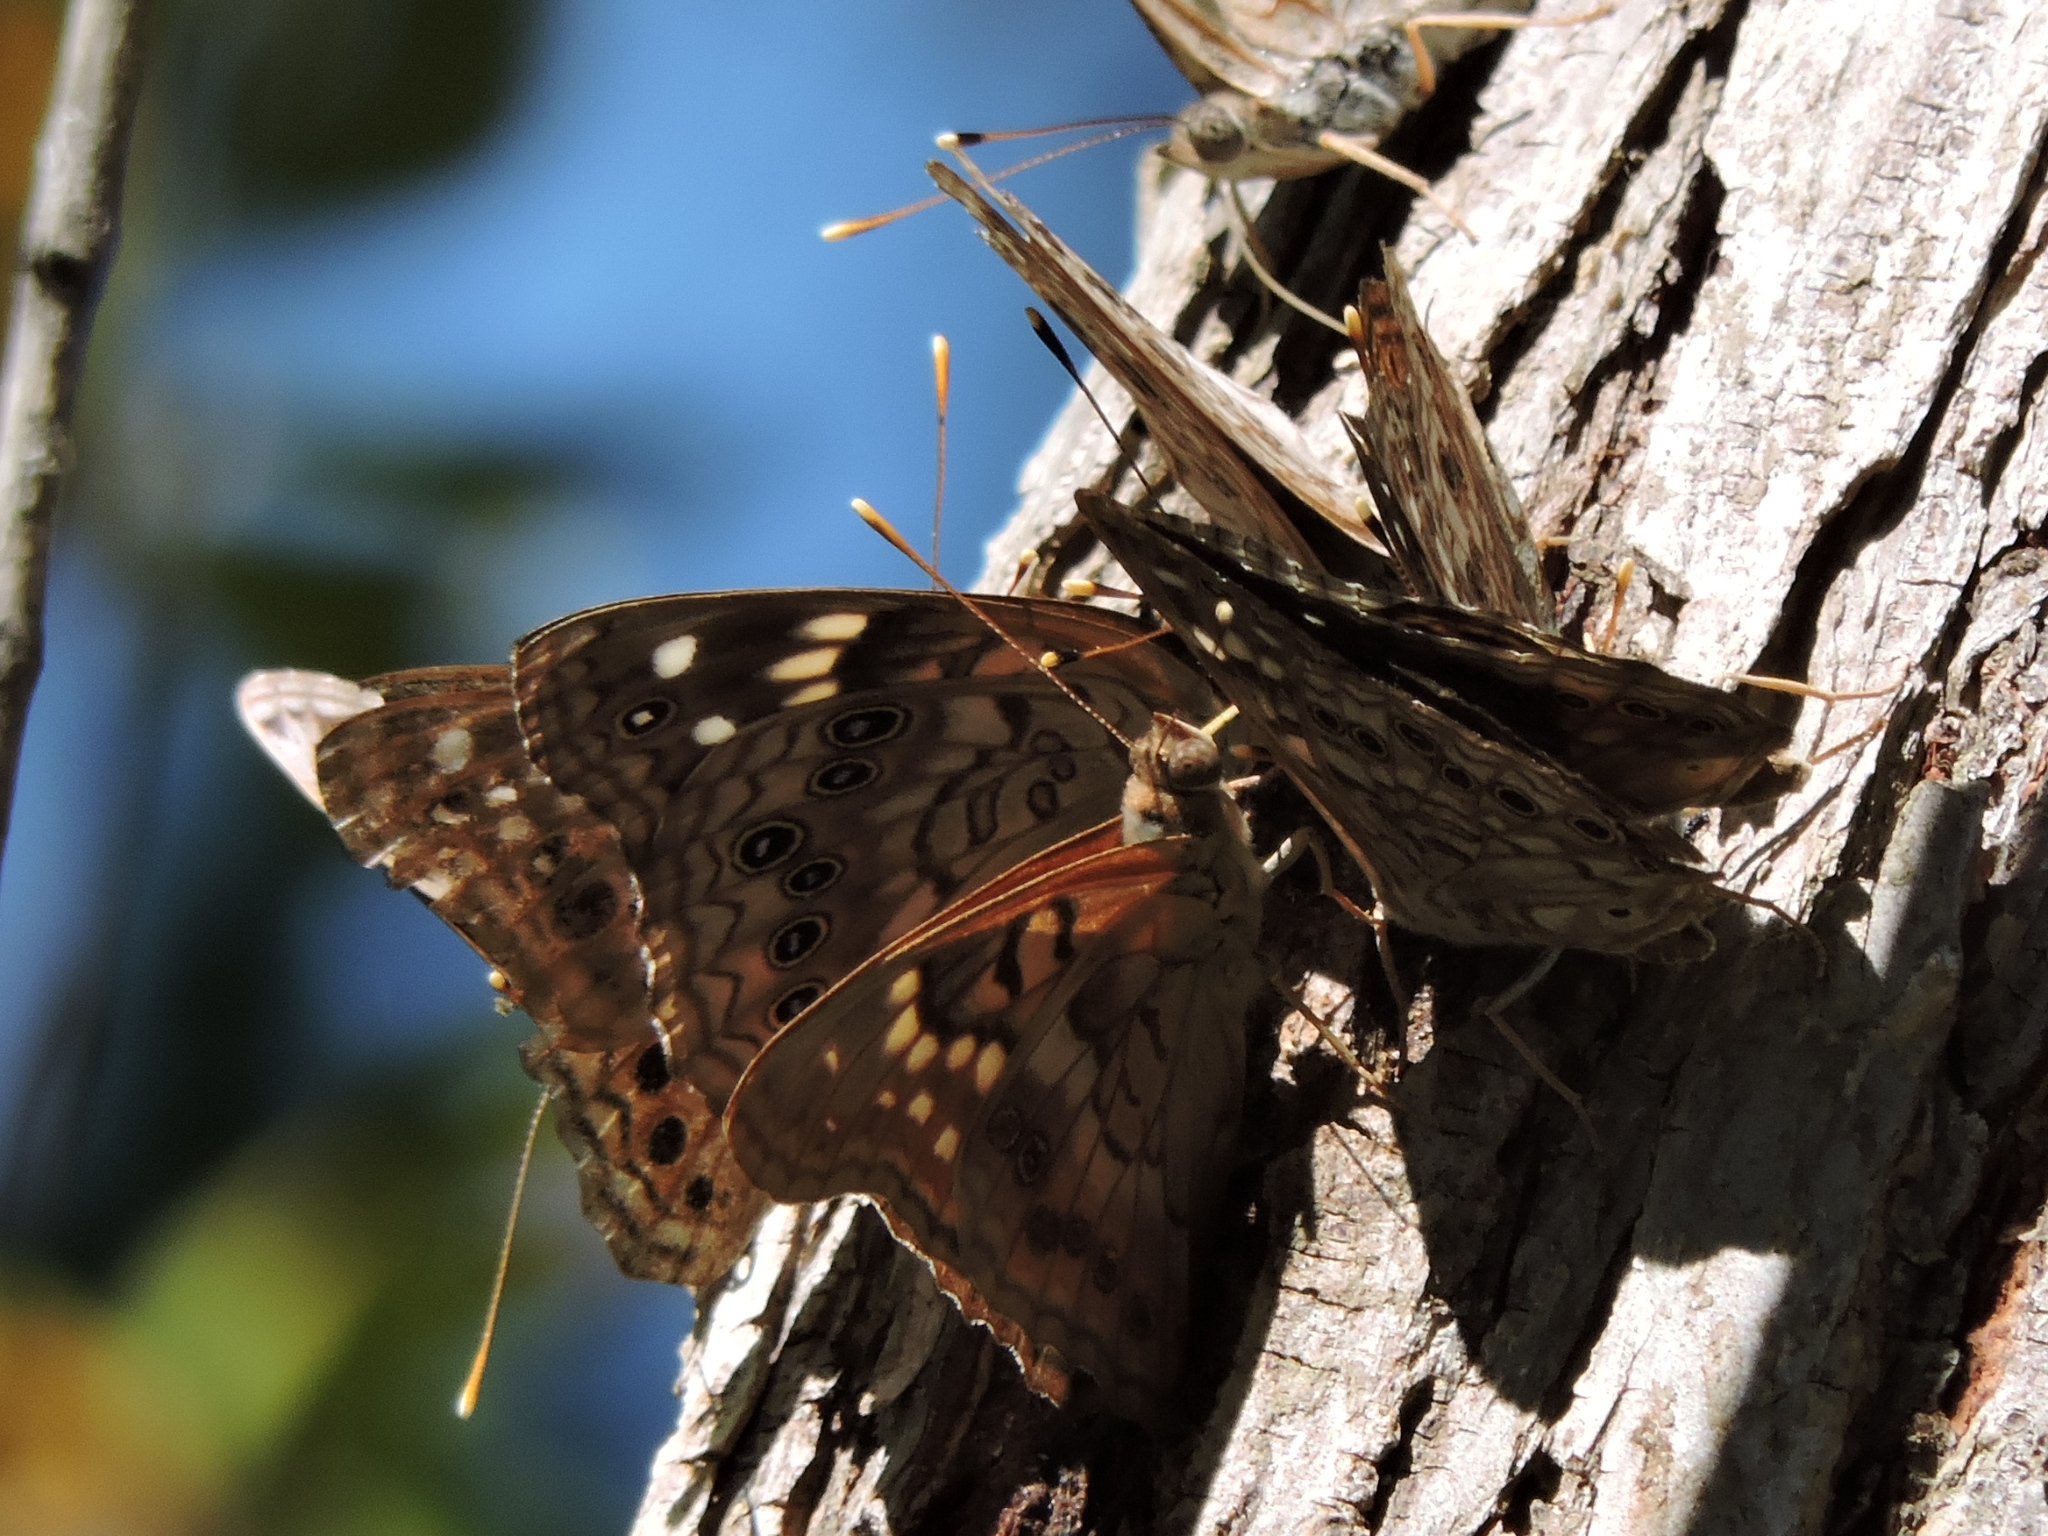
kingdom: Animalia
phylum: Arthropoda
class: Insecta
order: Lepidoptera
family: Nymphalidae
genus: Asterocampa
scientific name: Asterocampa clyton
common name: Tawny emperor
